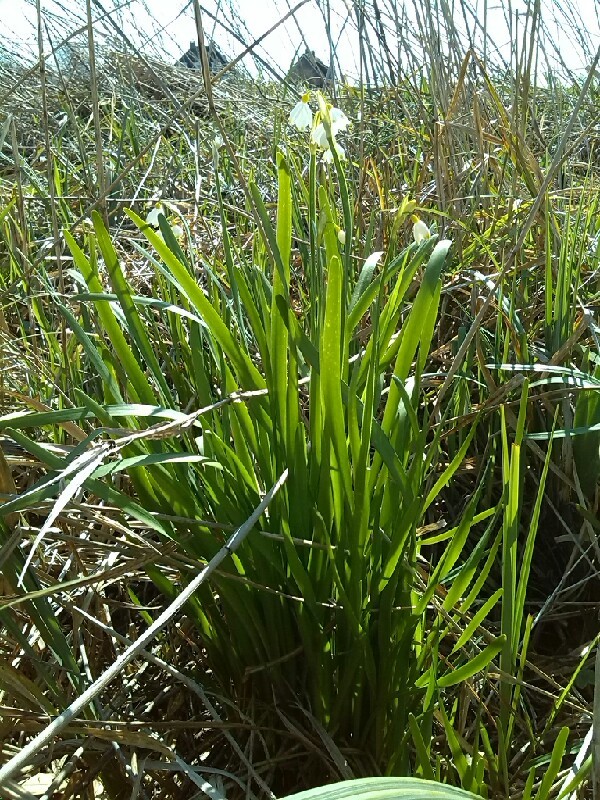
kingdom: Plantae
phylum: Tracheophyta
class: Liliopsida
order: Asparagales
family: Amaryllidaceae
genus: Leucojum
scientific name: Leucojum aestivum
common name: Summer snowflake
